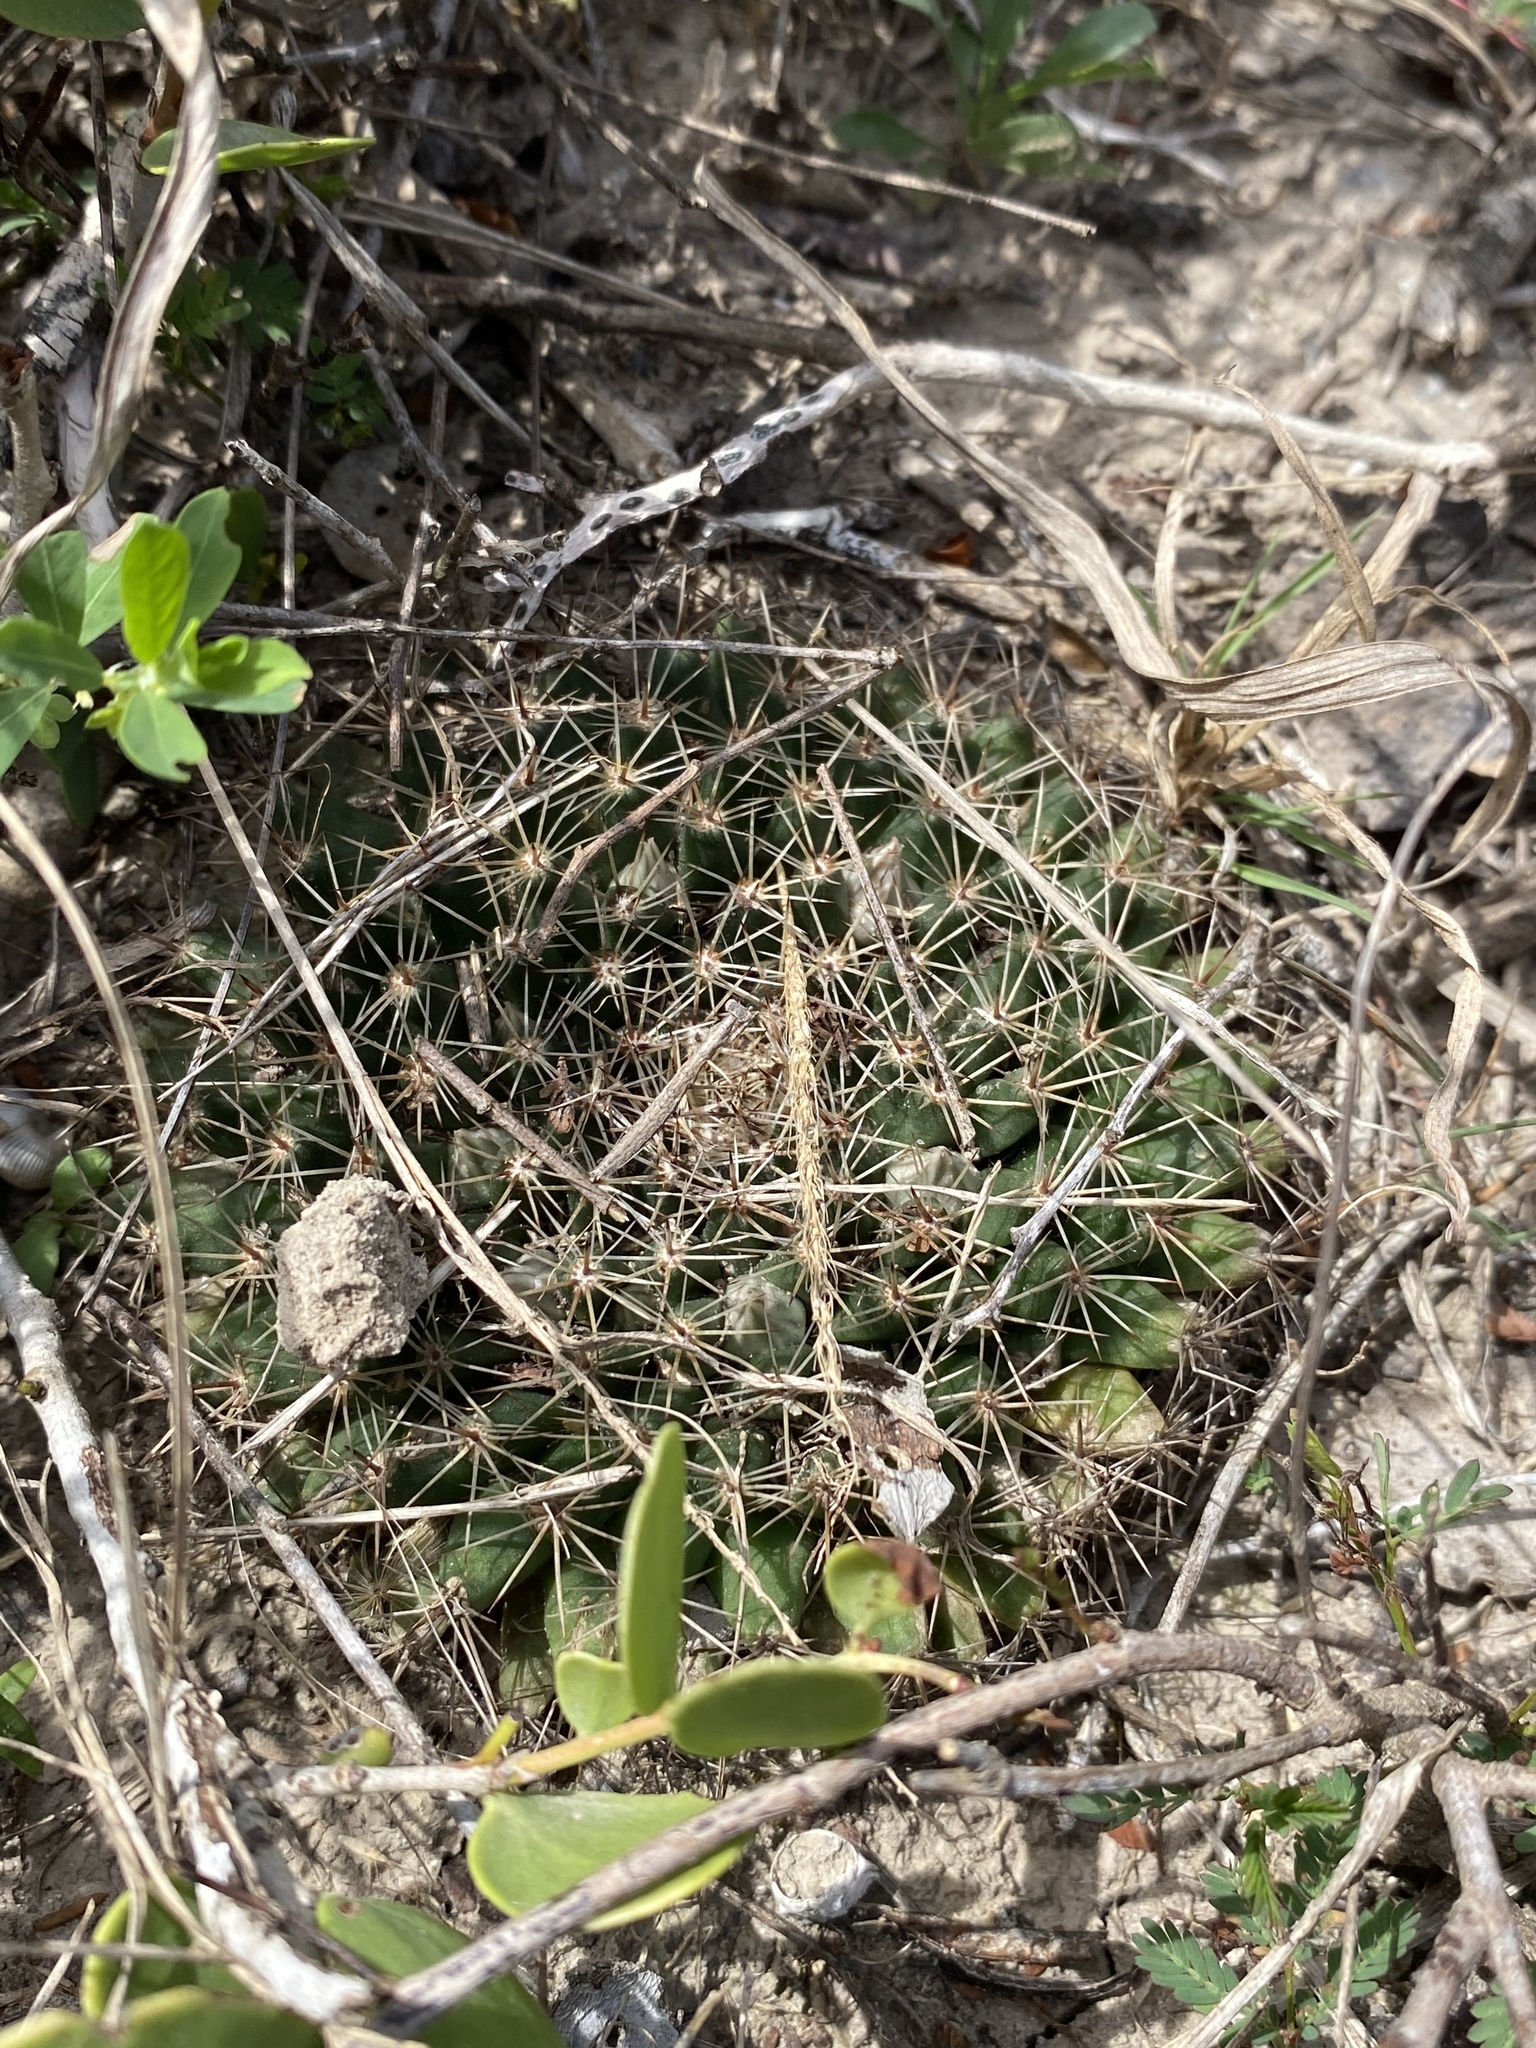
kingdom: Plantae
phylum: Tracheophyta
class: Magnoliopsida
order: Caryophyllales
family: Cactaceae
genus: Mammillaria
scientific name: Mammillaria heyderi
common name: Little nipple cactus
